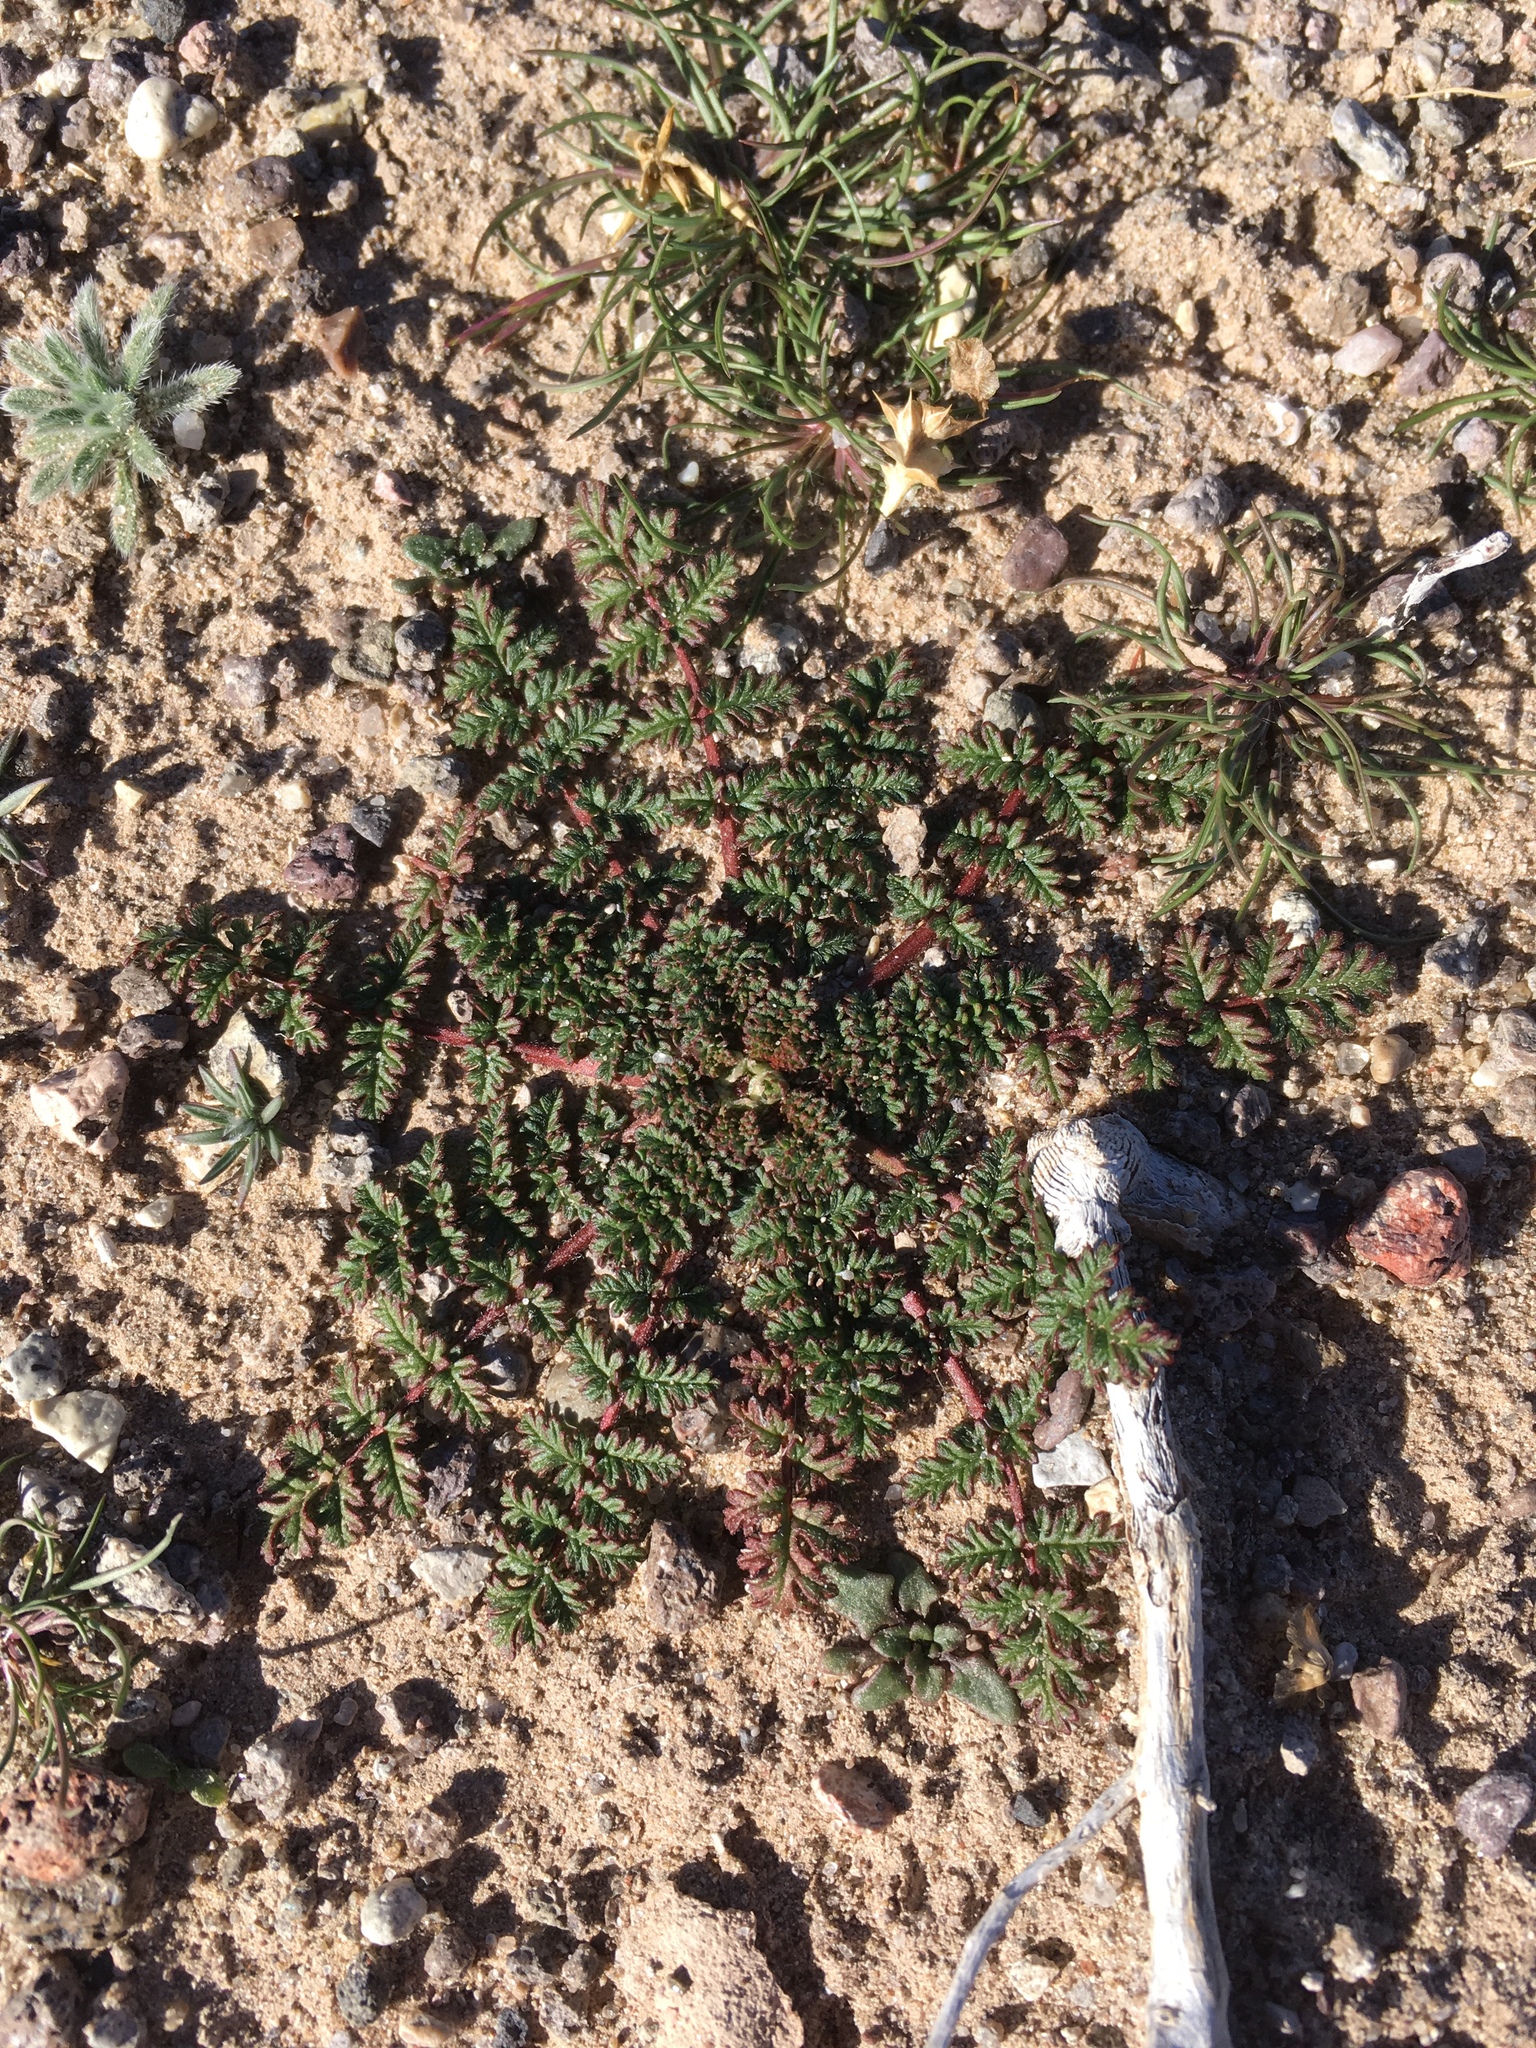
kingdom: Plantae
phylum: Tracheophyta
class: Magnoliopsida
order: Geraniales
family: Geraniaceae
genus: Erodium
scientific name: Erodium cicutarium
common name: Common stork's-bill
